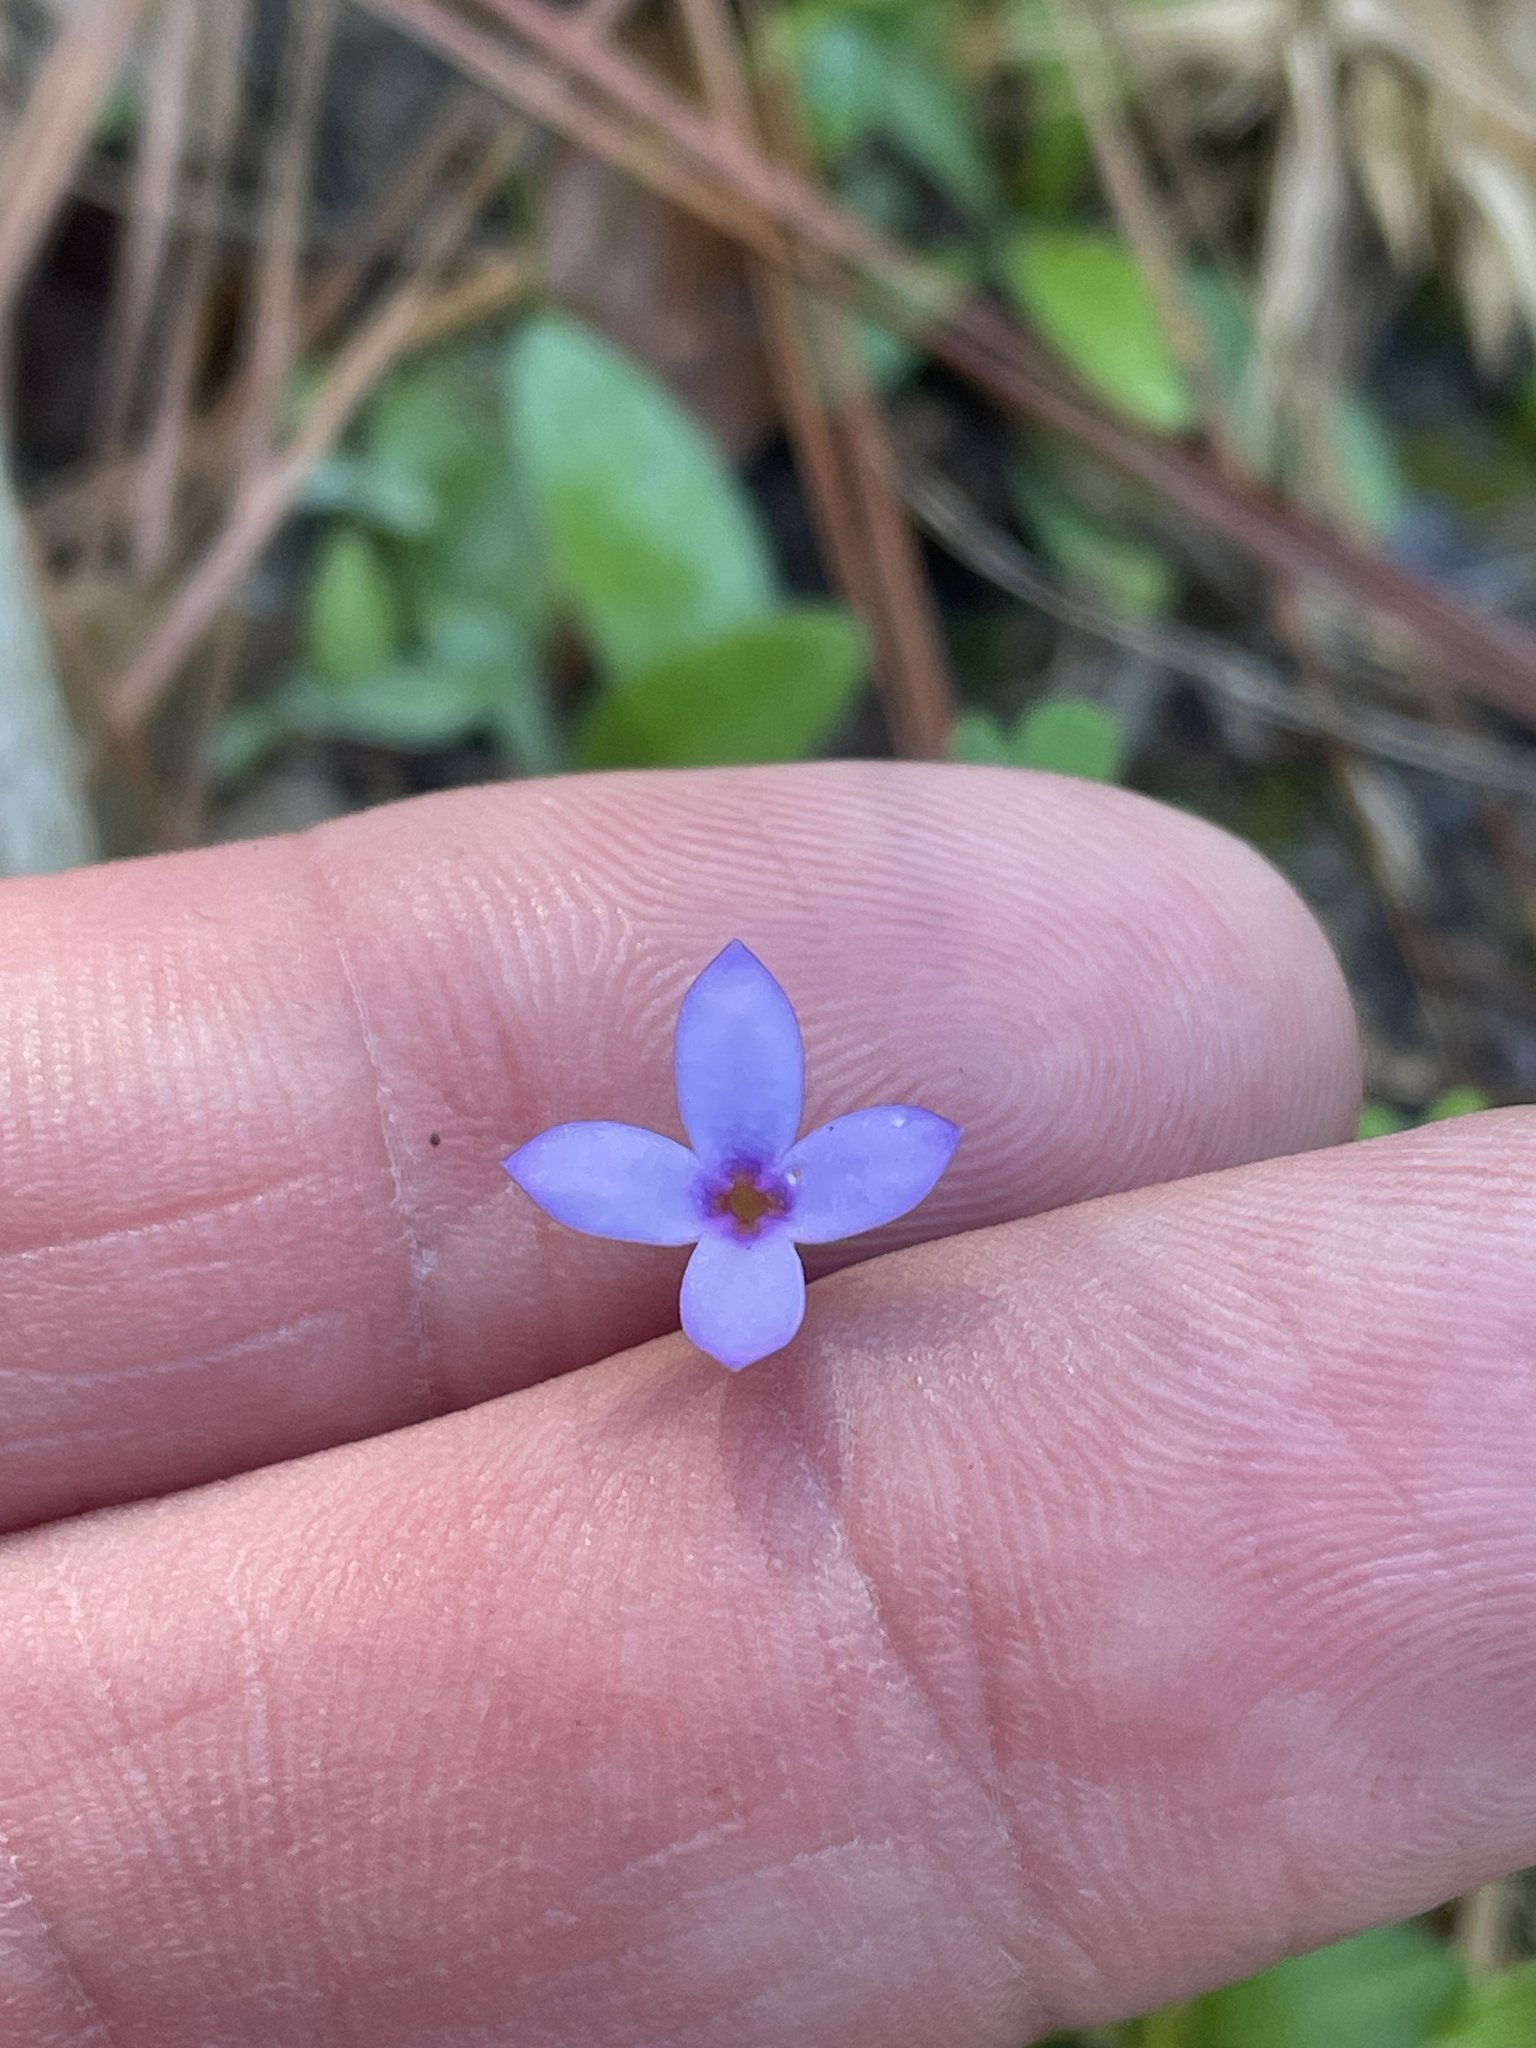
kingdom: Plantae
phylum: Tracheophyta
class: Magnoliopsida
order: Gentianales
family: Rubiaceae
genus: Houstonia
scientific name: Houstonia pusilla
